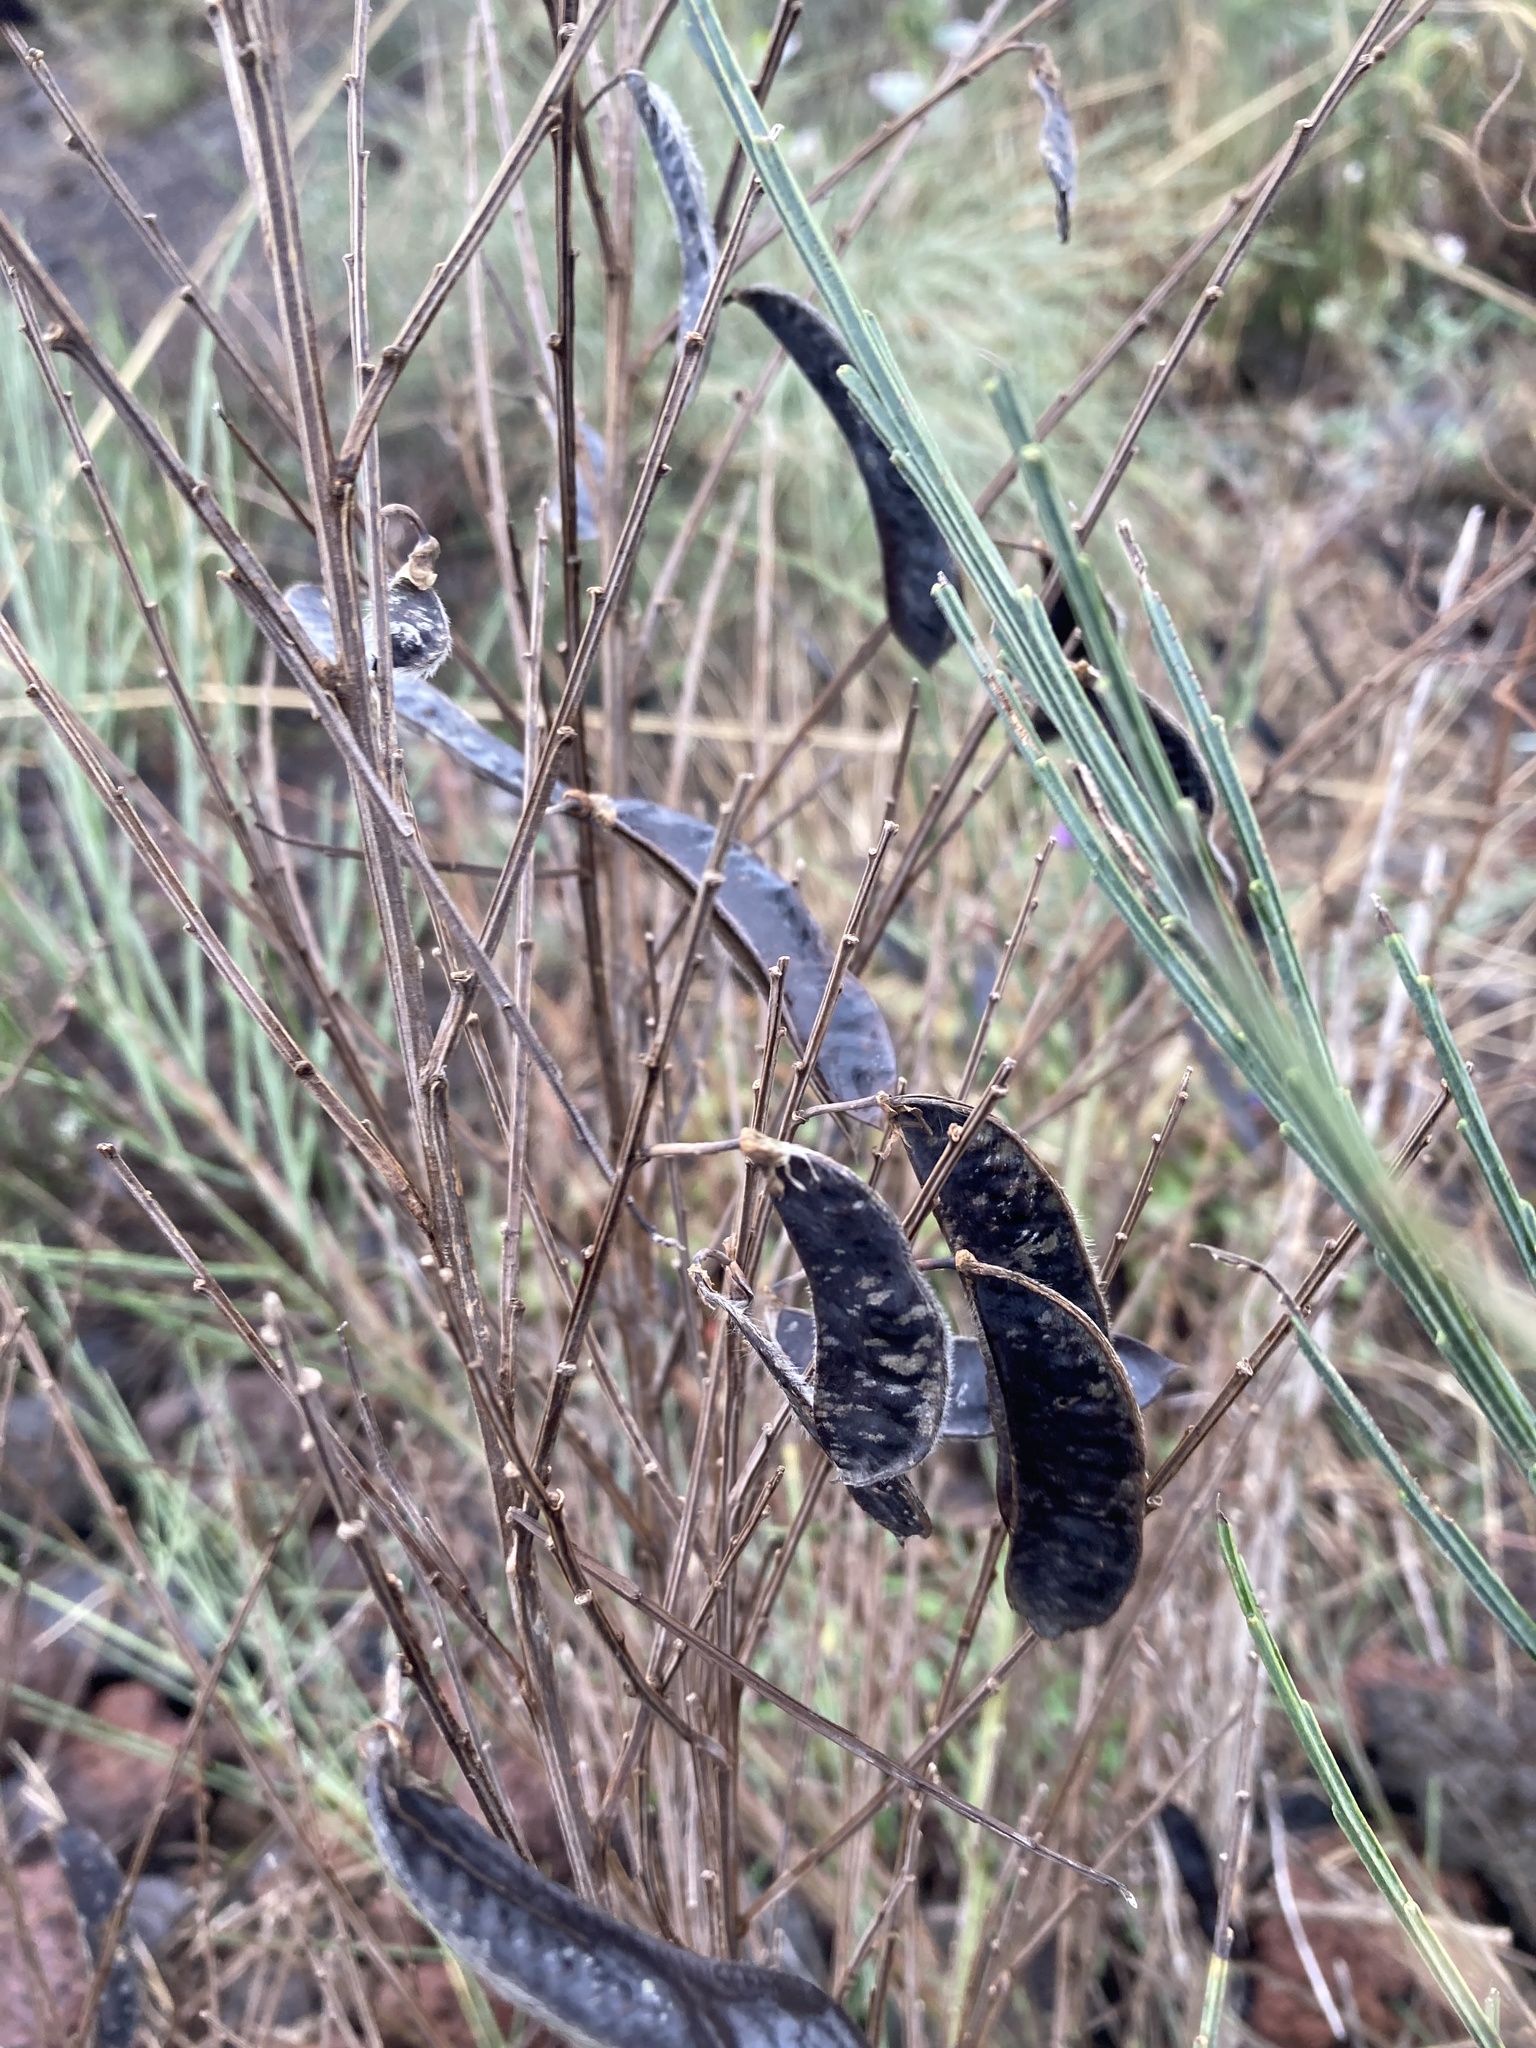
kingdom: Plantae
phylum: Tracheophyta
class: Magnoliopsida
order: Fabales
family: Fabaceae
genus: Cytisus
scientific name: Cytisus scoparius
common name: Scotch broom
